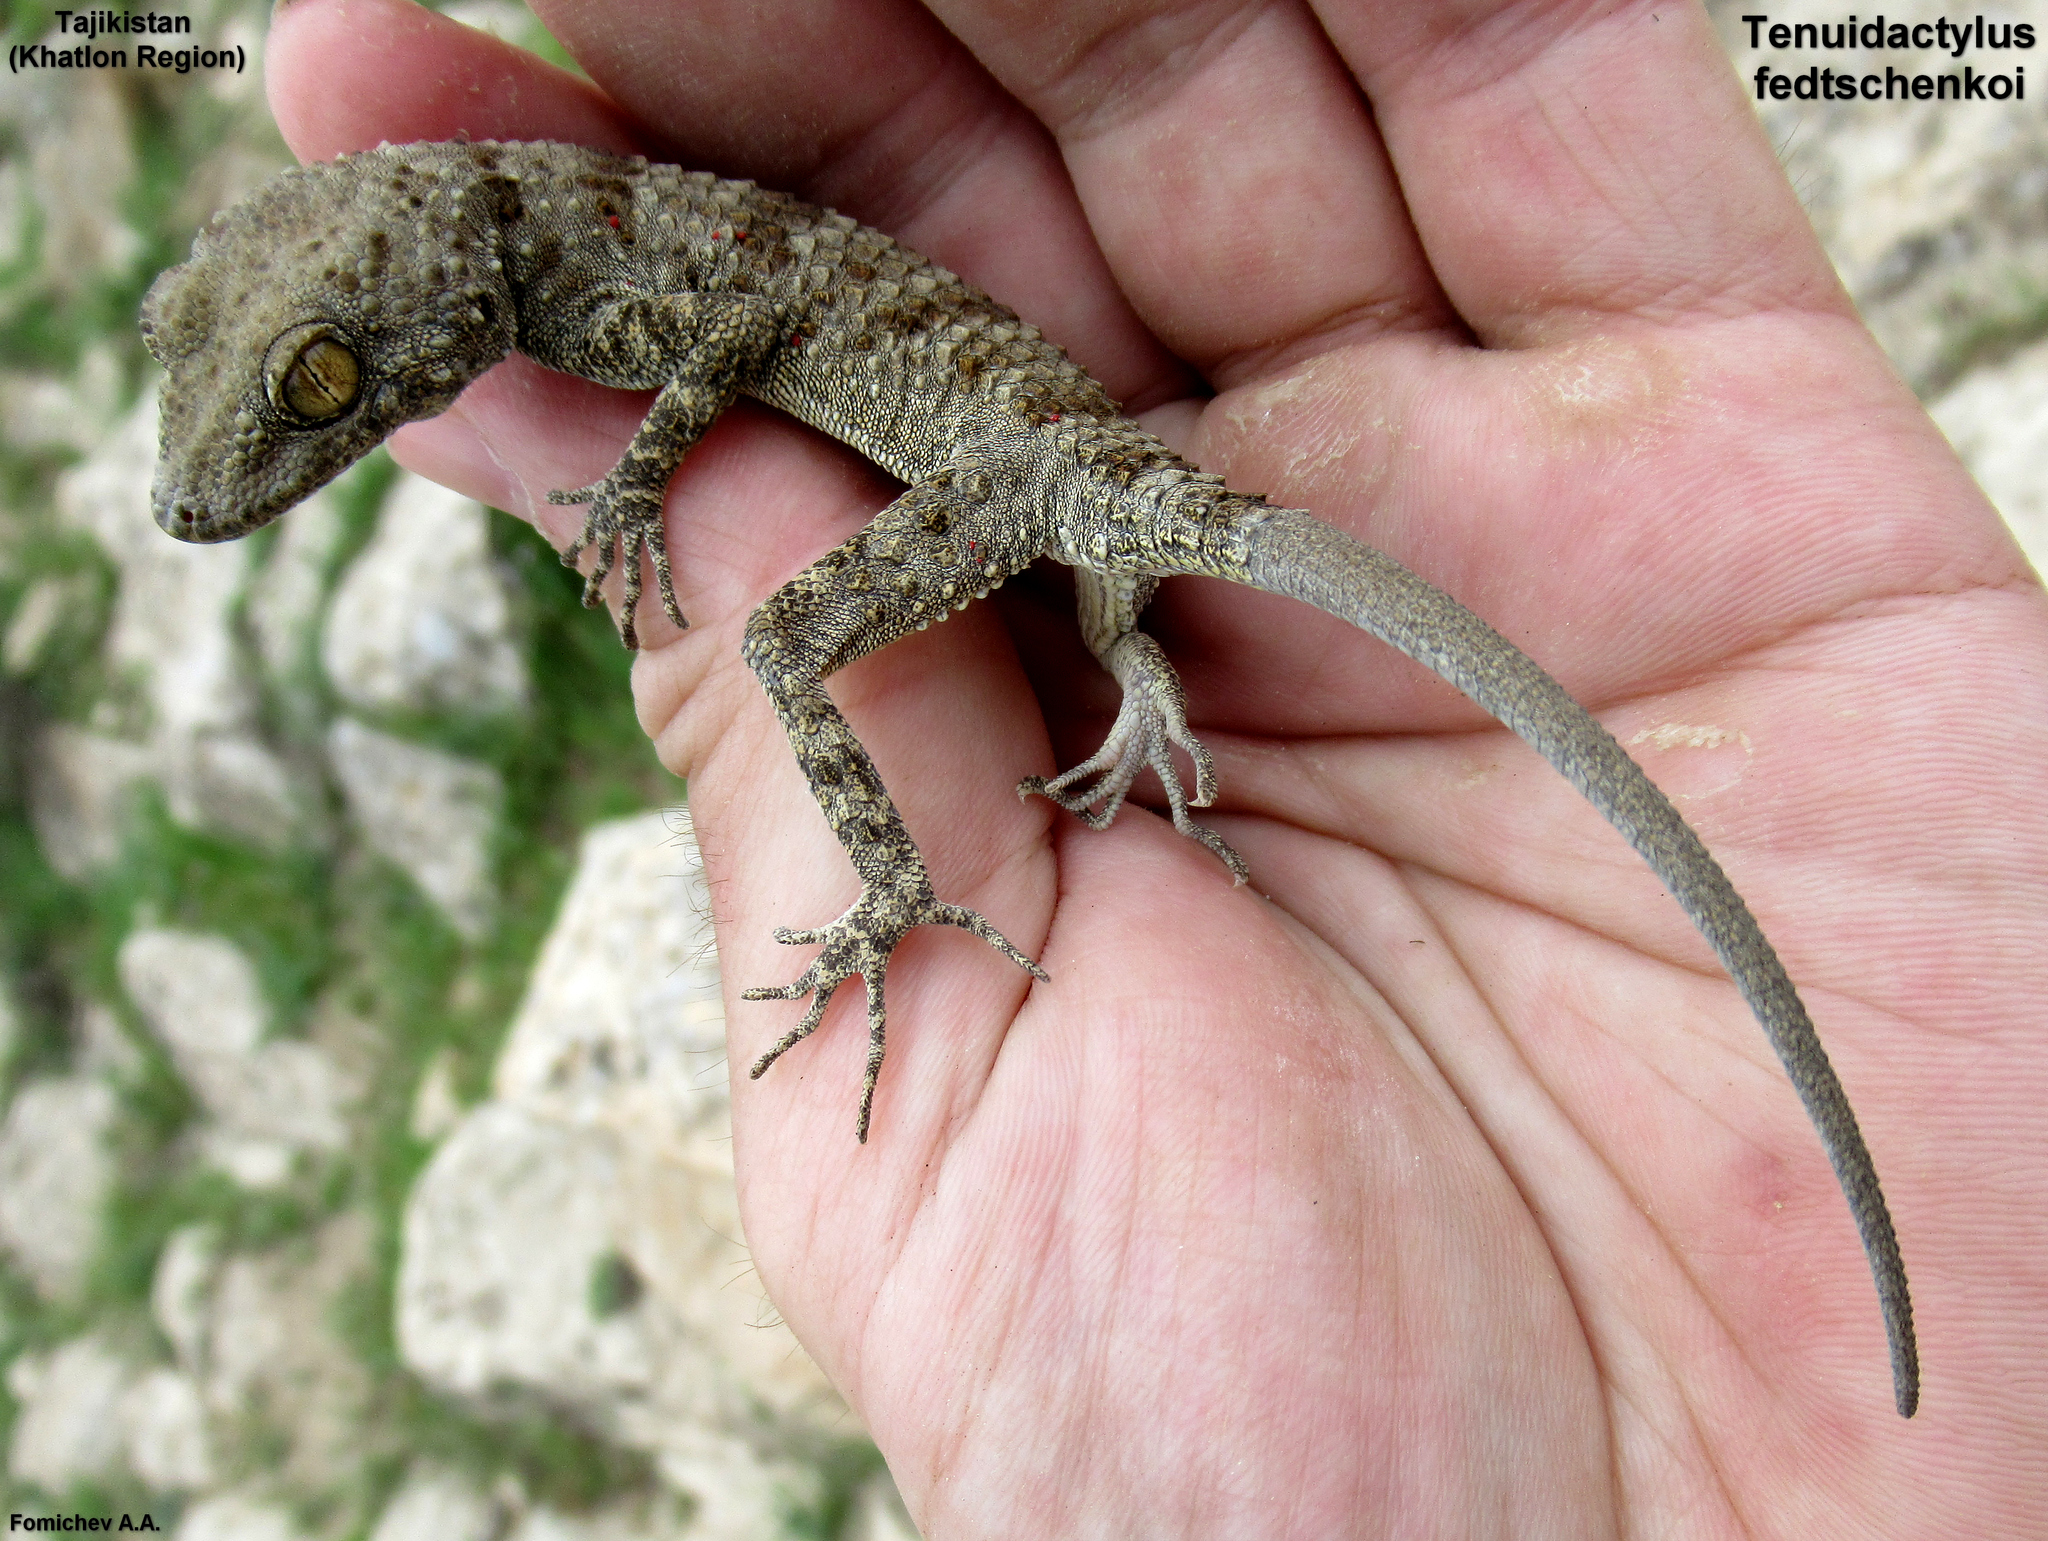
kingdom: Animalia
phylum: Chordata
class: Squamata
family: Gekkonidae
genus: Tenuidactylus
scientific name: Tenuidactylus fedtschenkoi
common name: Turkestan thin-toed gecko
